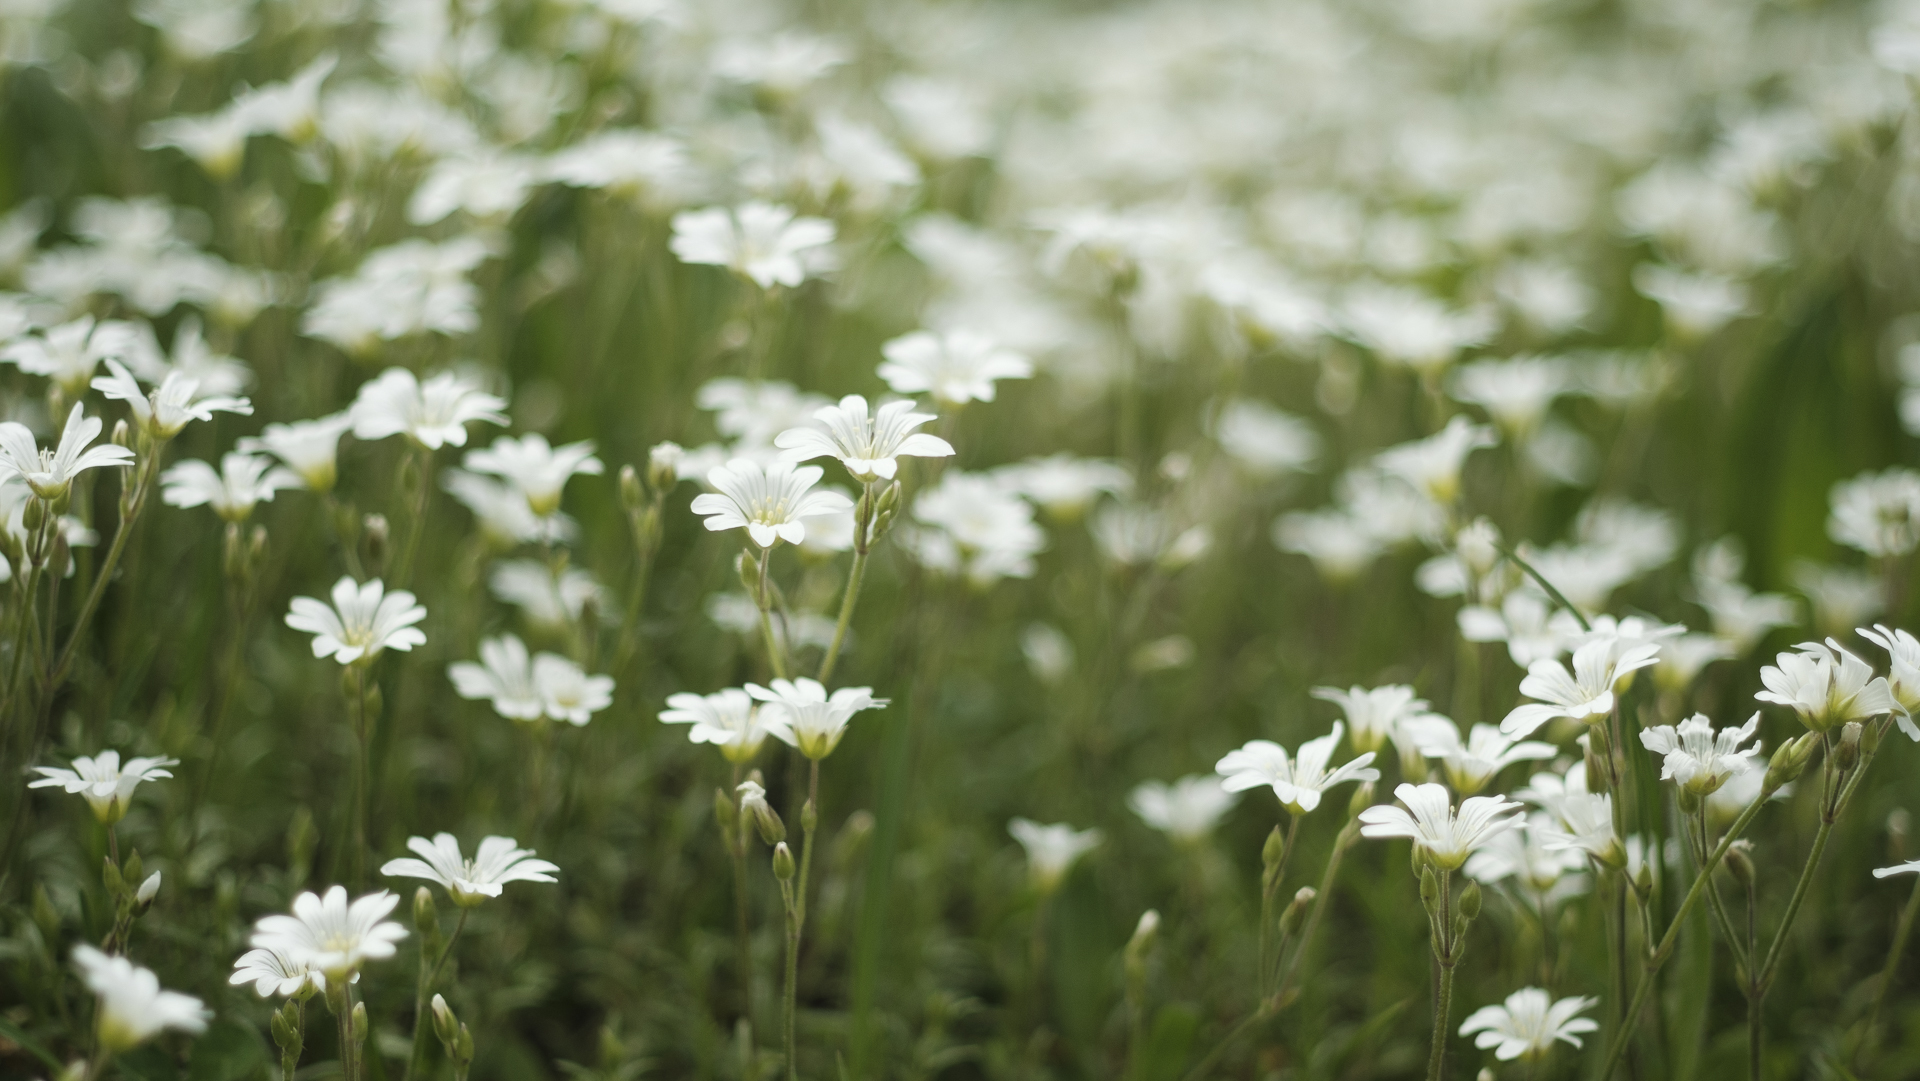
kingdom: Plantae
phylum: Tracheophyta
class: Magnoliopsida
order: Caryophyllales
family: Caryophyllaceae
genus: Cerastium
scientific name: Cerastium arvense
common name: Field mouse-ear
